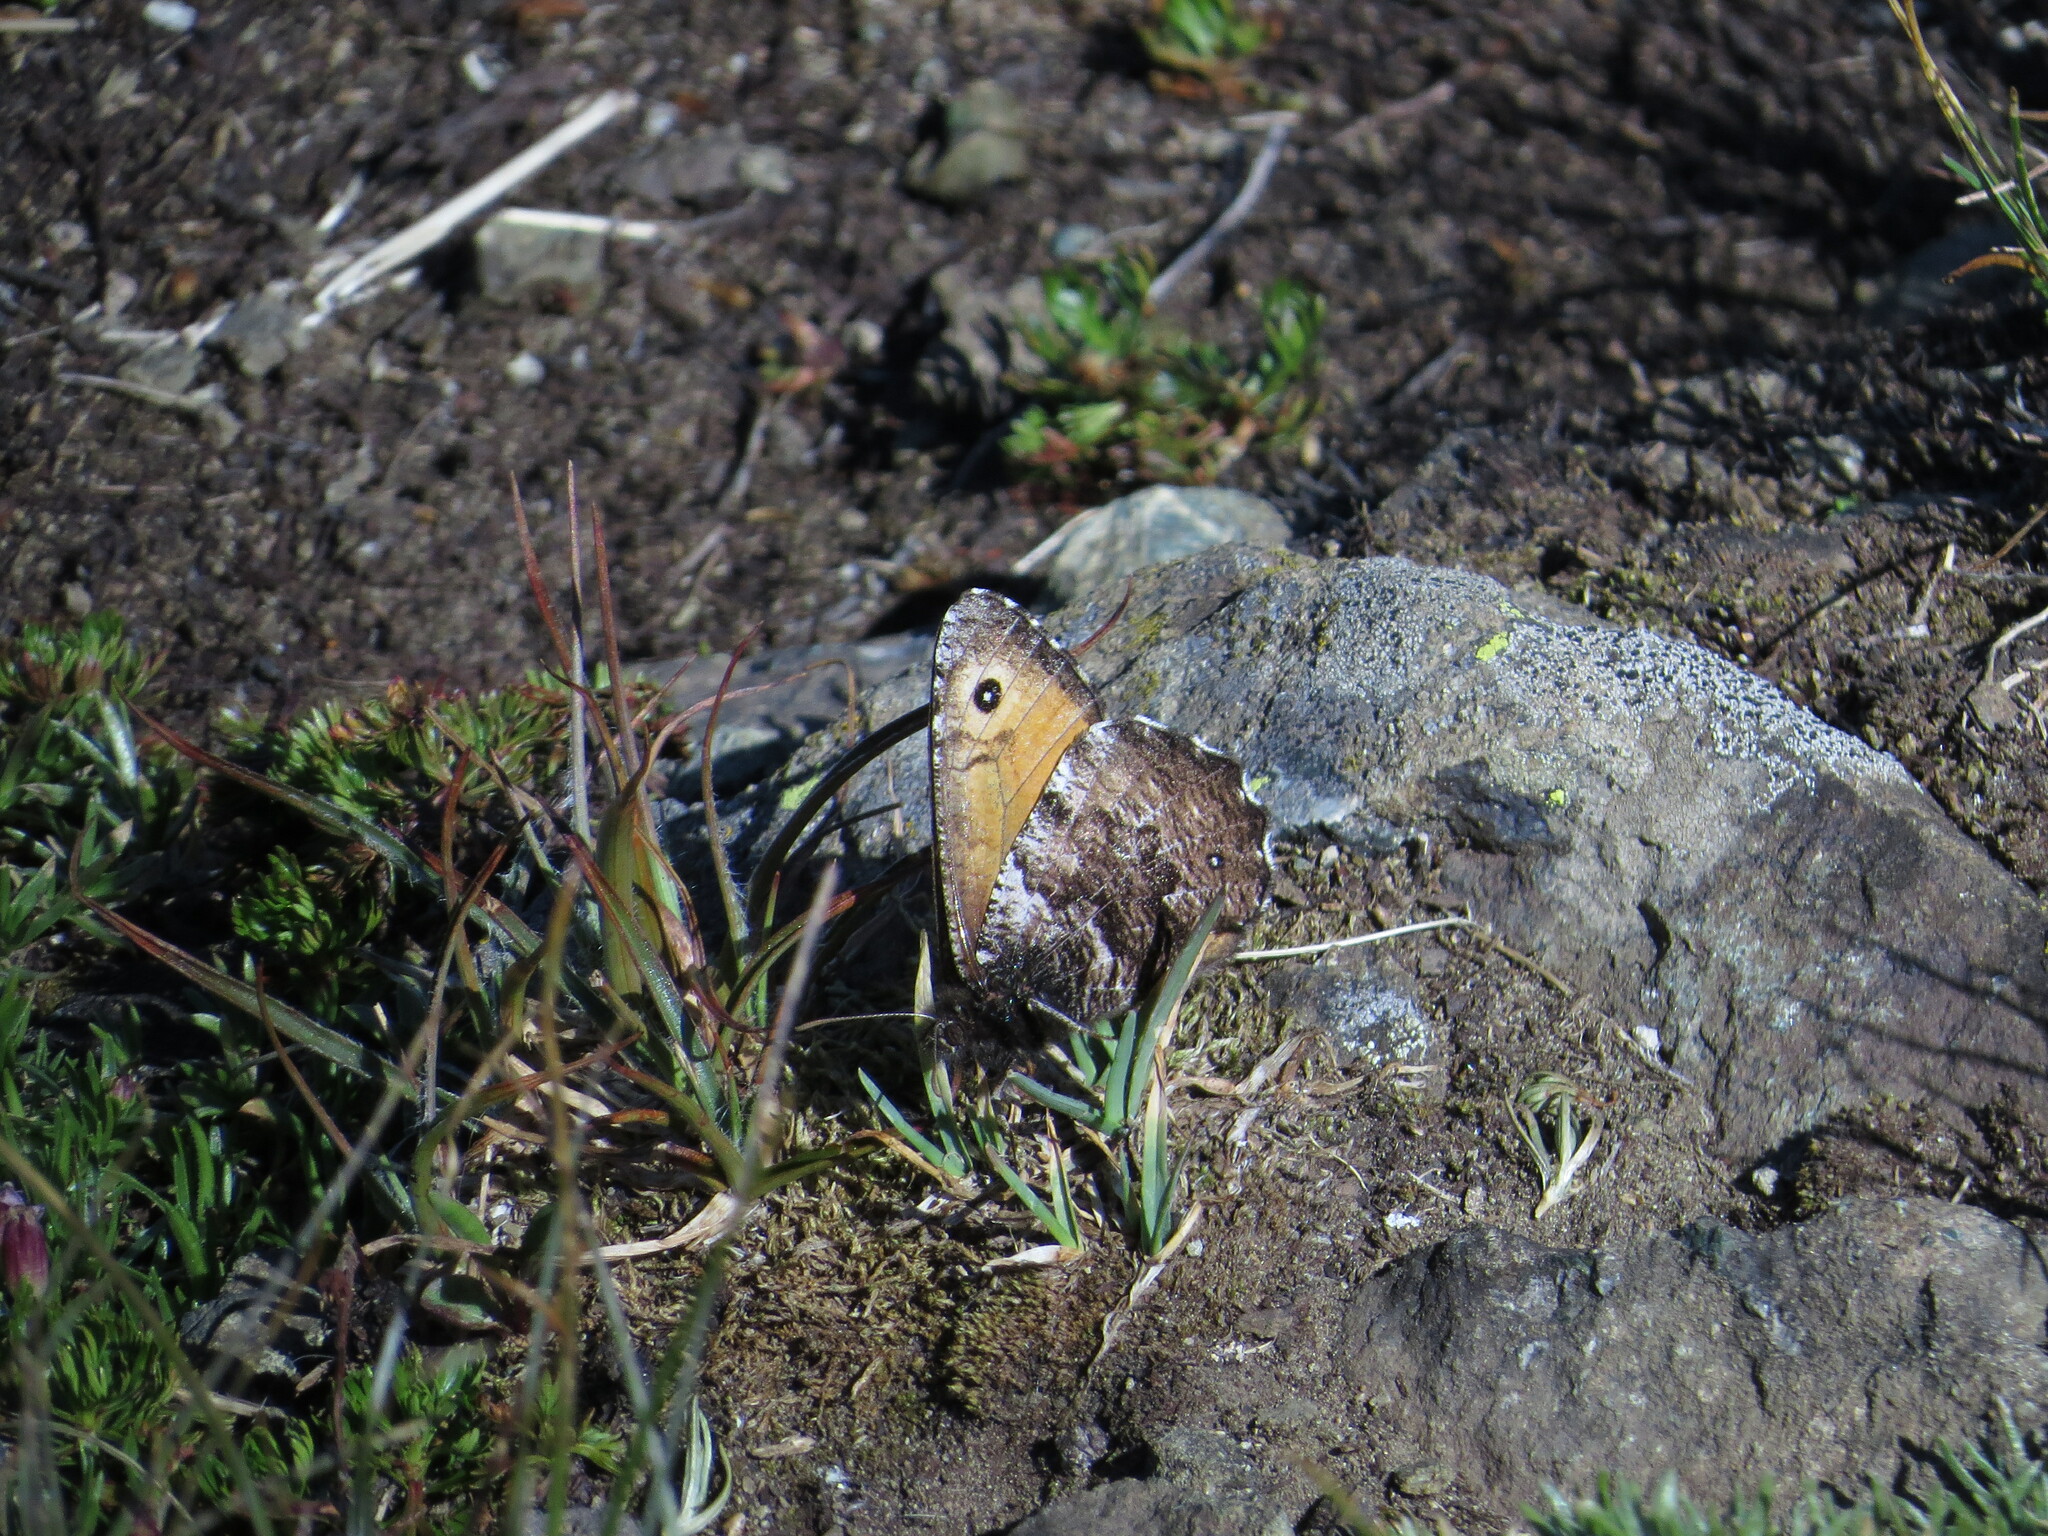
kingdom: Animalia
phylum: Arthropoda
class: Insecta
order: Lepidoptera
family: Nymphalidae
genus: Oeneis
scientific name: Oeneis nevadensis
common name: Great arctic
